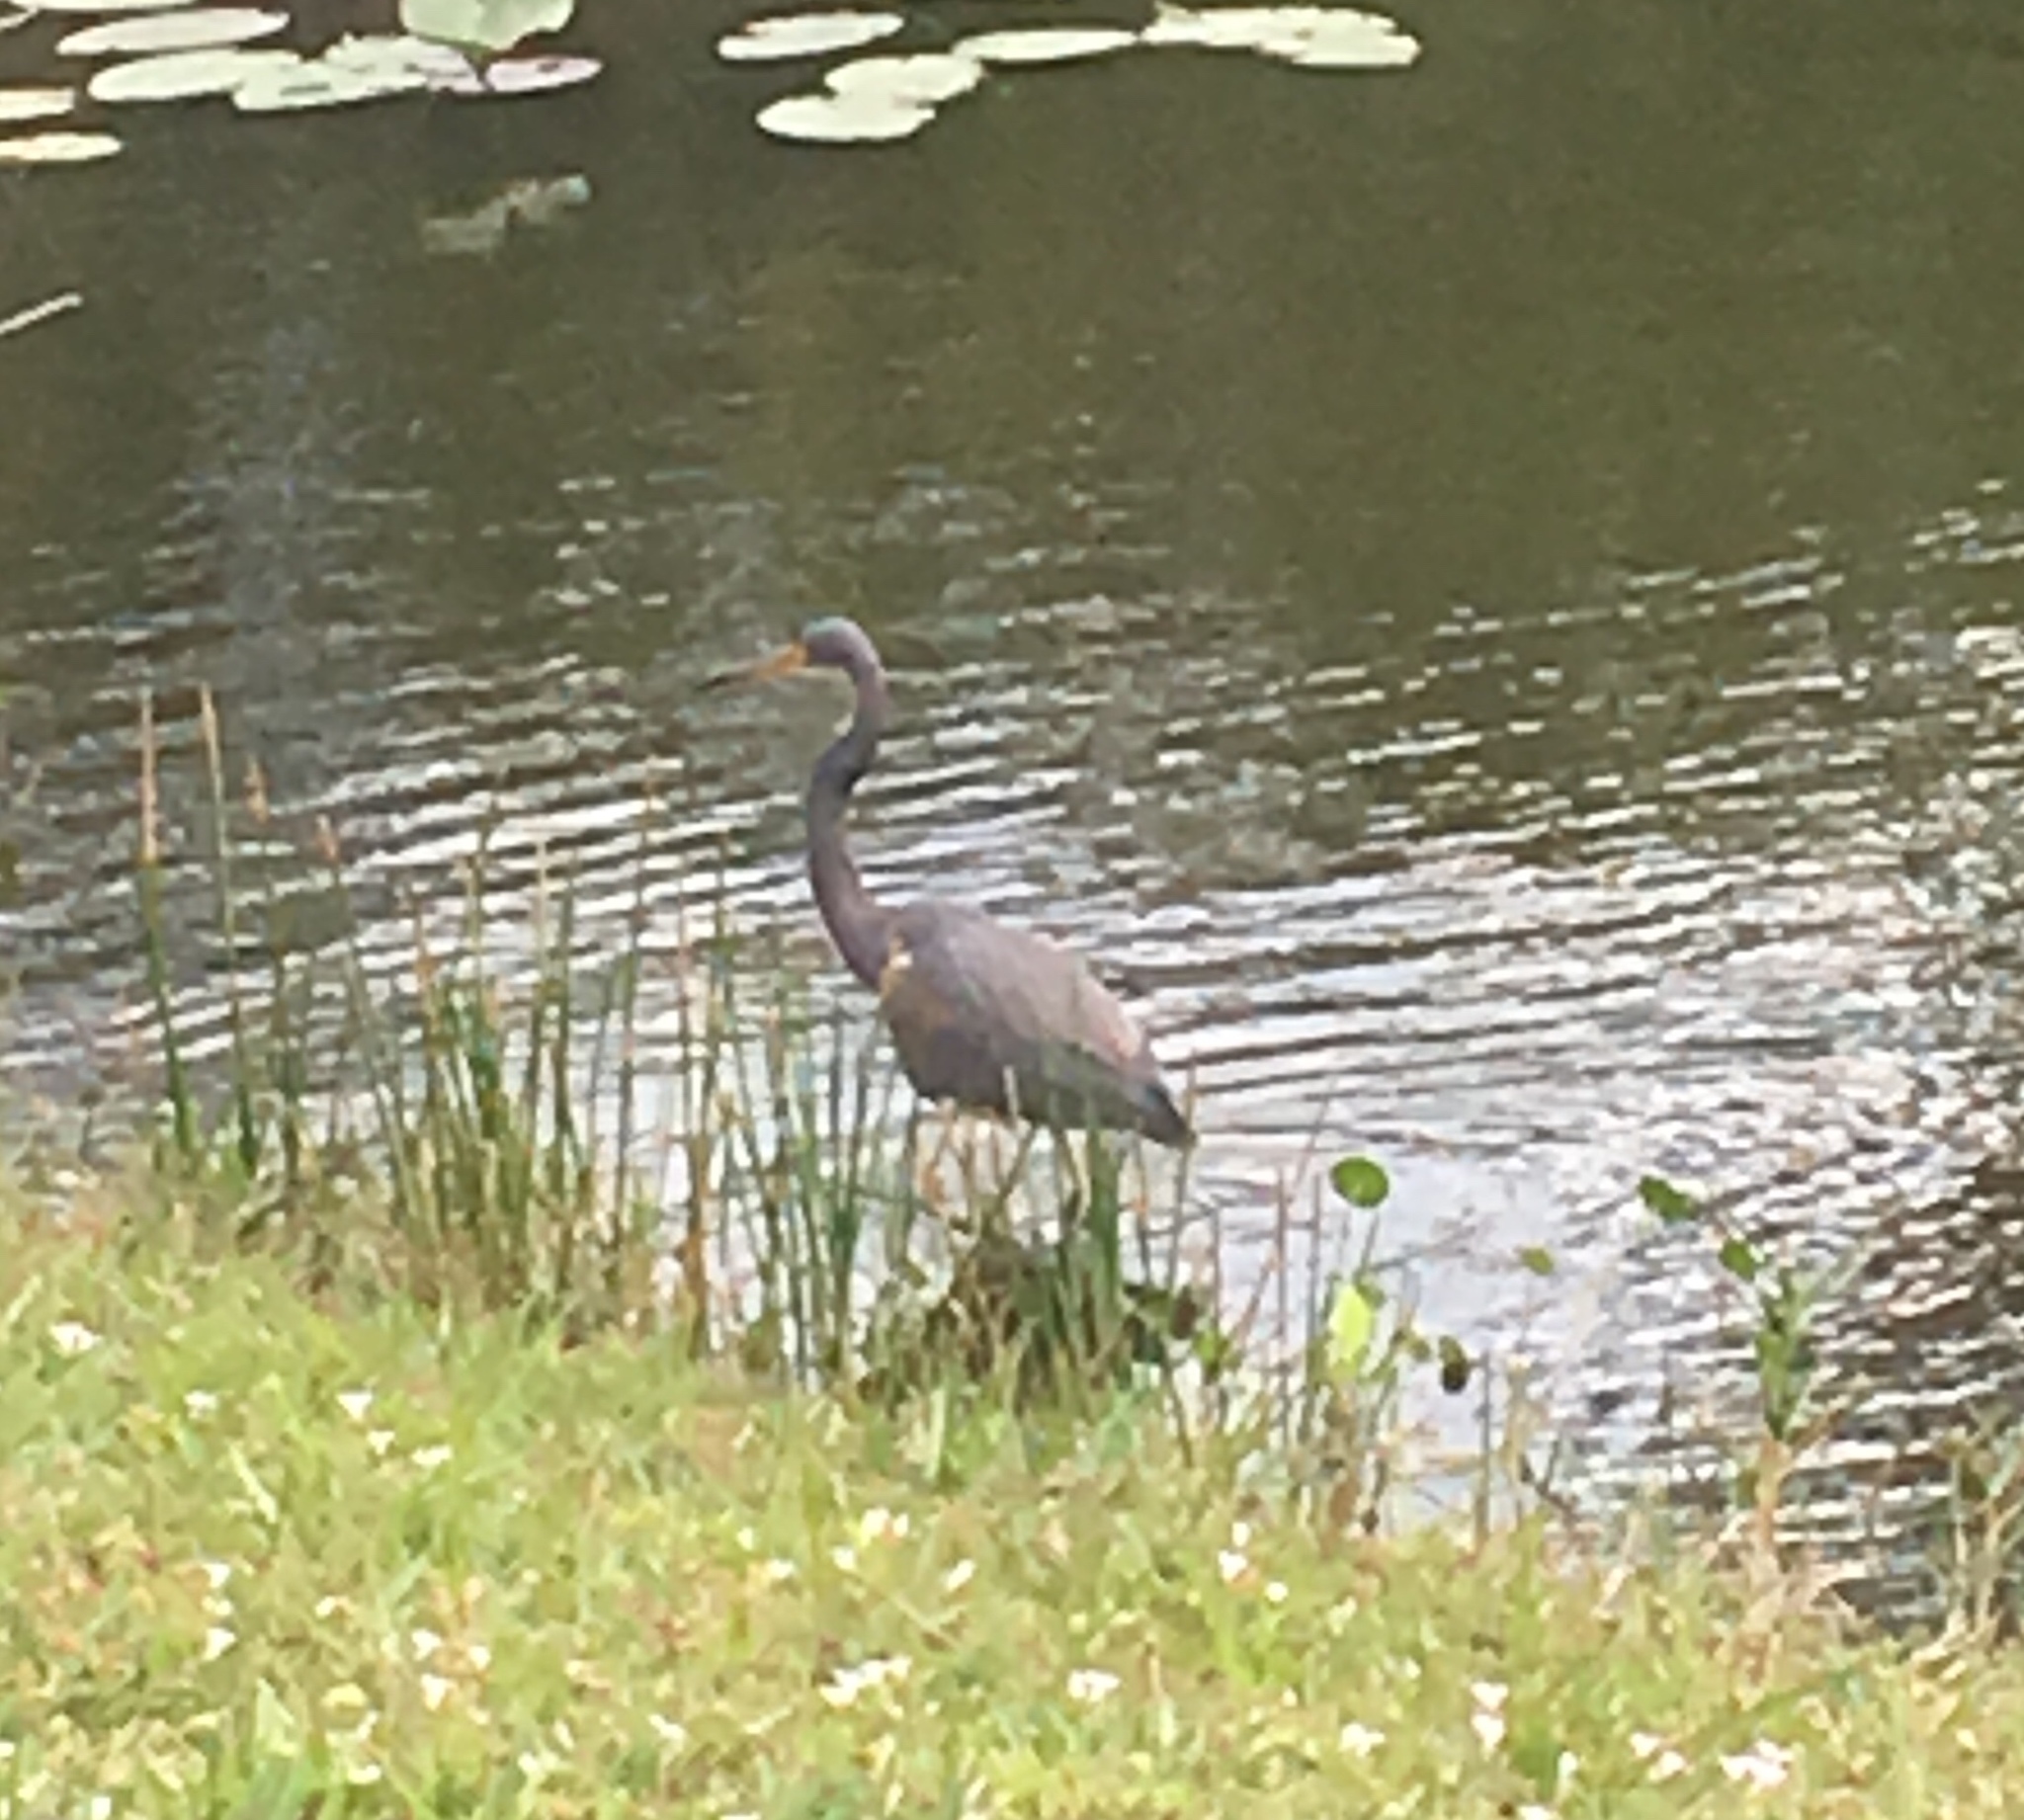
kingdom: Animalia
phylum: Chordata
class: Aves
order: Pelecaniformes
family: Ardeidae
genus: Egretta
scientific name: Egretta tricolor
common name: Tricolored heron
